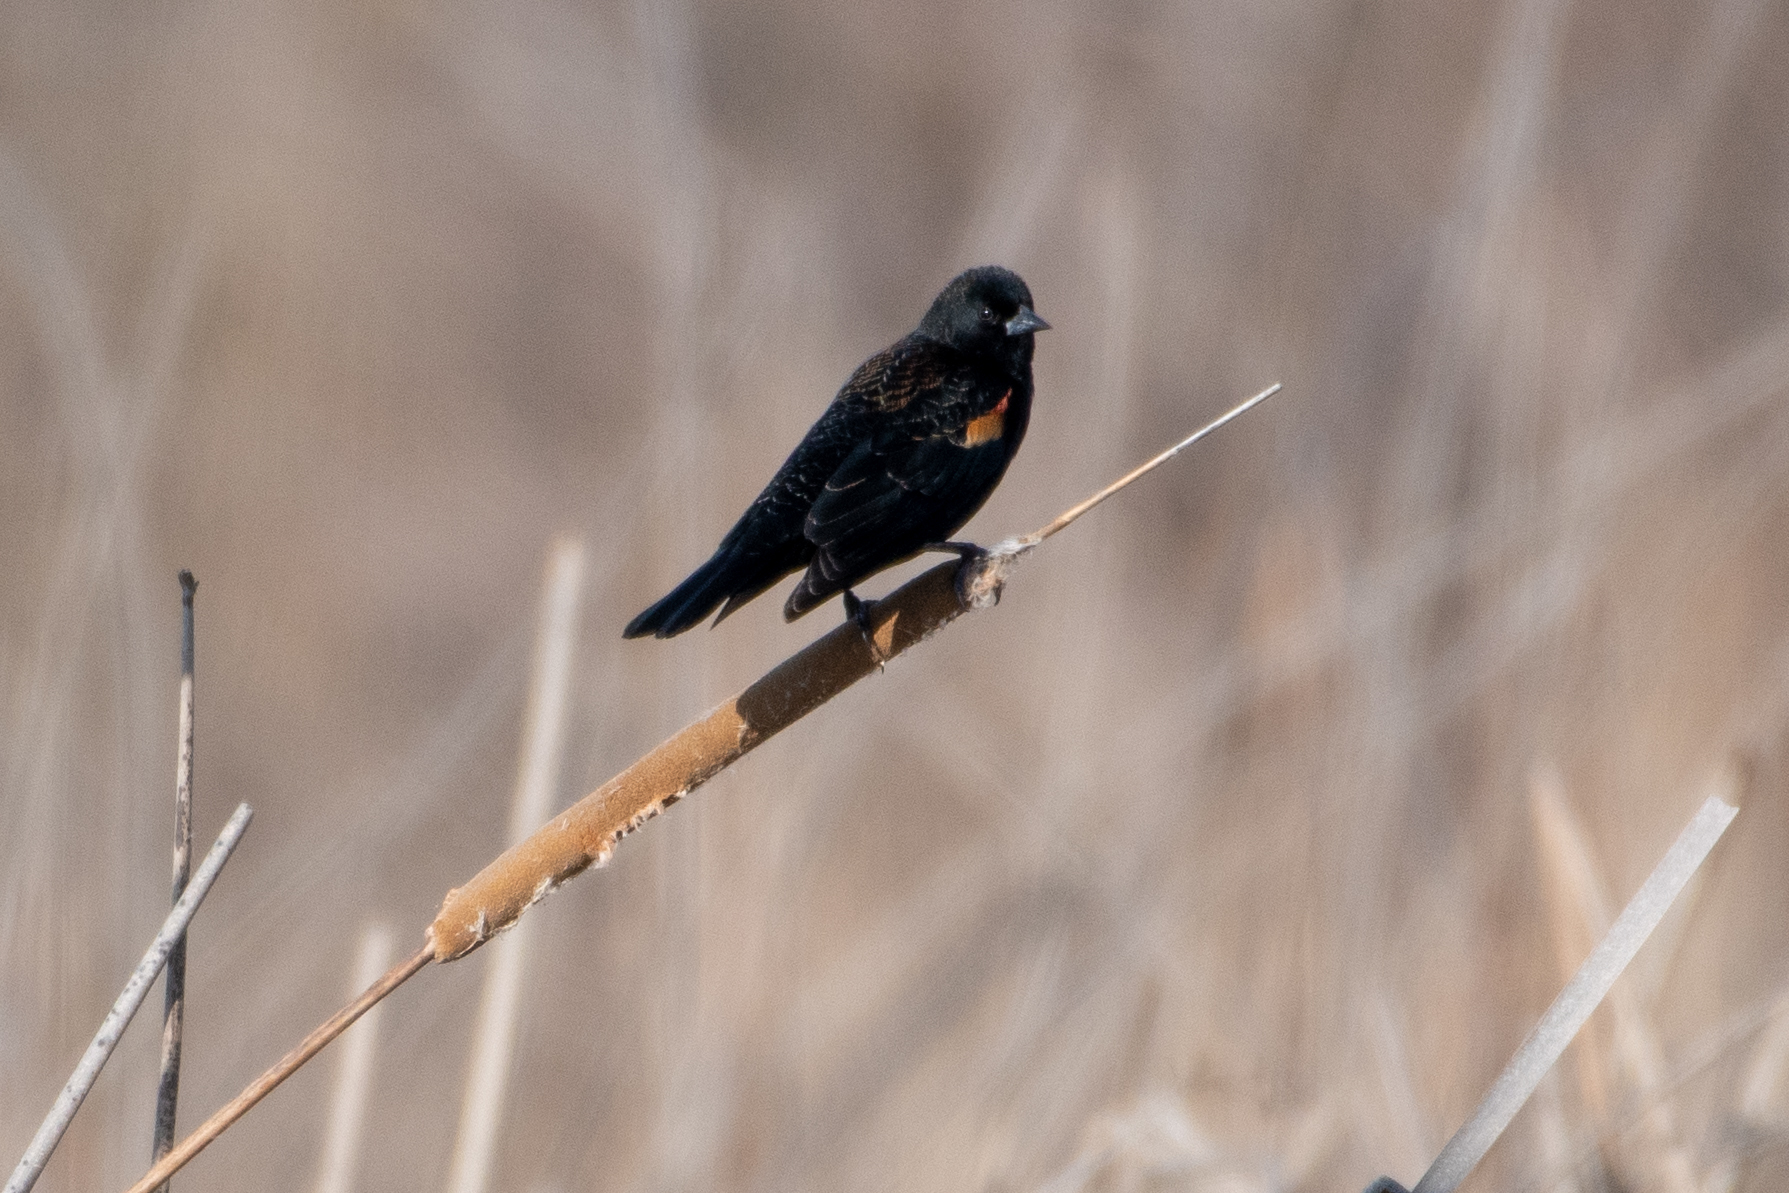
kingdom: Animalia
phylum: Chordata
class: Aves
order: Passeriformes
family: Icteridae
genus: Agelaius
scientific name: Agelaius phoeniceus
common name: Red-winged blackbird
